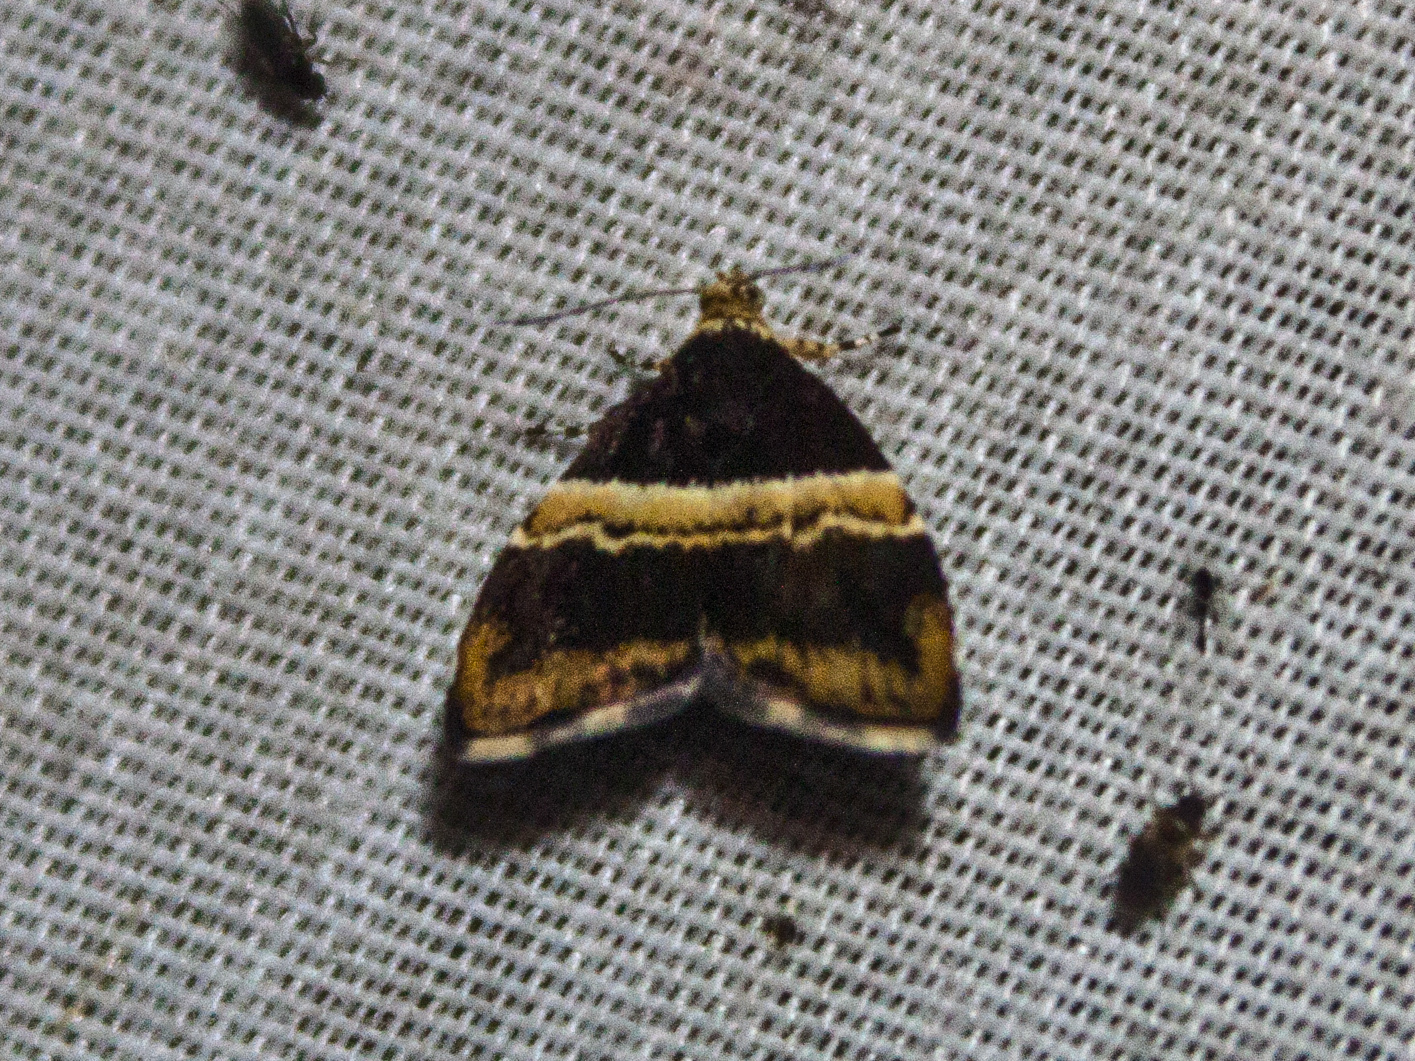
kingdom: Animalia
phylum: Arthropoda
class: Insecta
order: Lepidoptera
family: Choreutidae
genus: Choreutis
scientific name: Choreutis basalis
